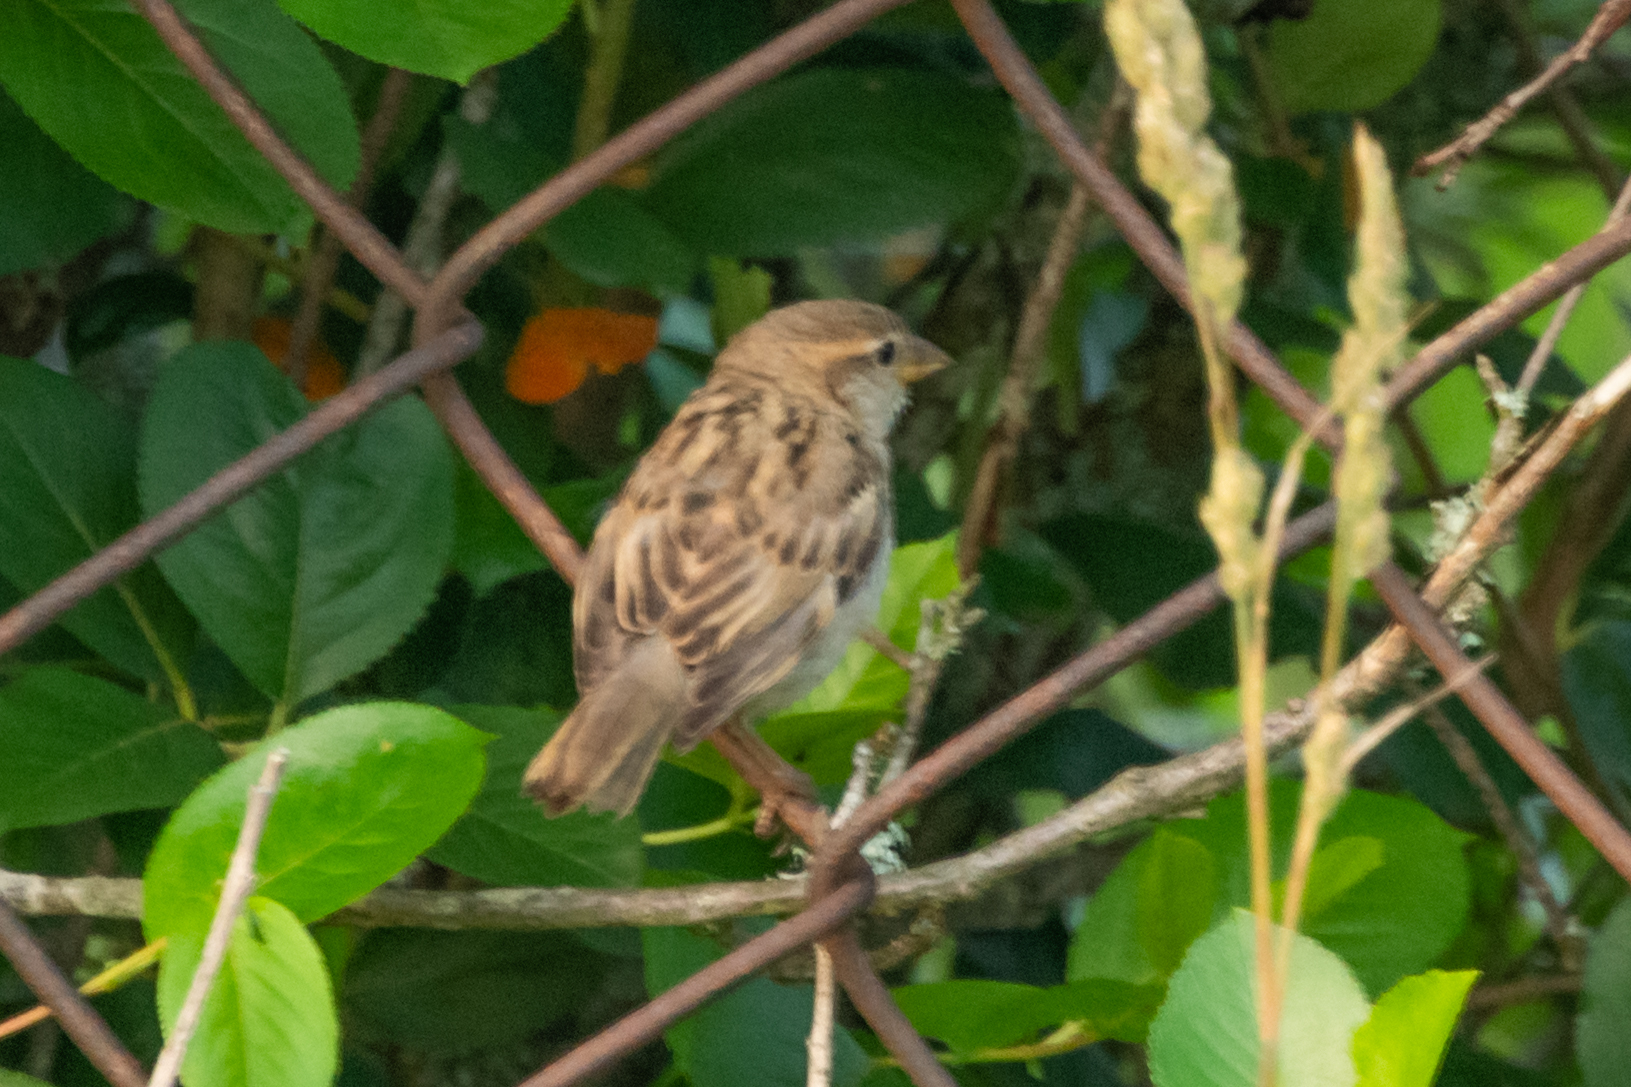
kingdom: Animalia
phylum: Chordata
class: Aves
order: Passeriformes
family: Passeridae
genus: Passer
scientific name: Passer domesticus
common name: House sparrow
